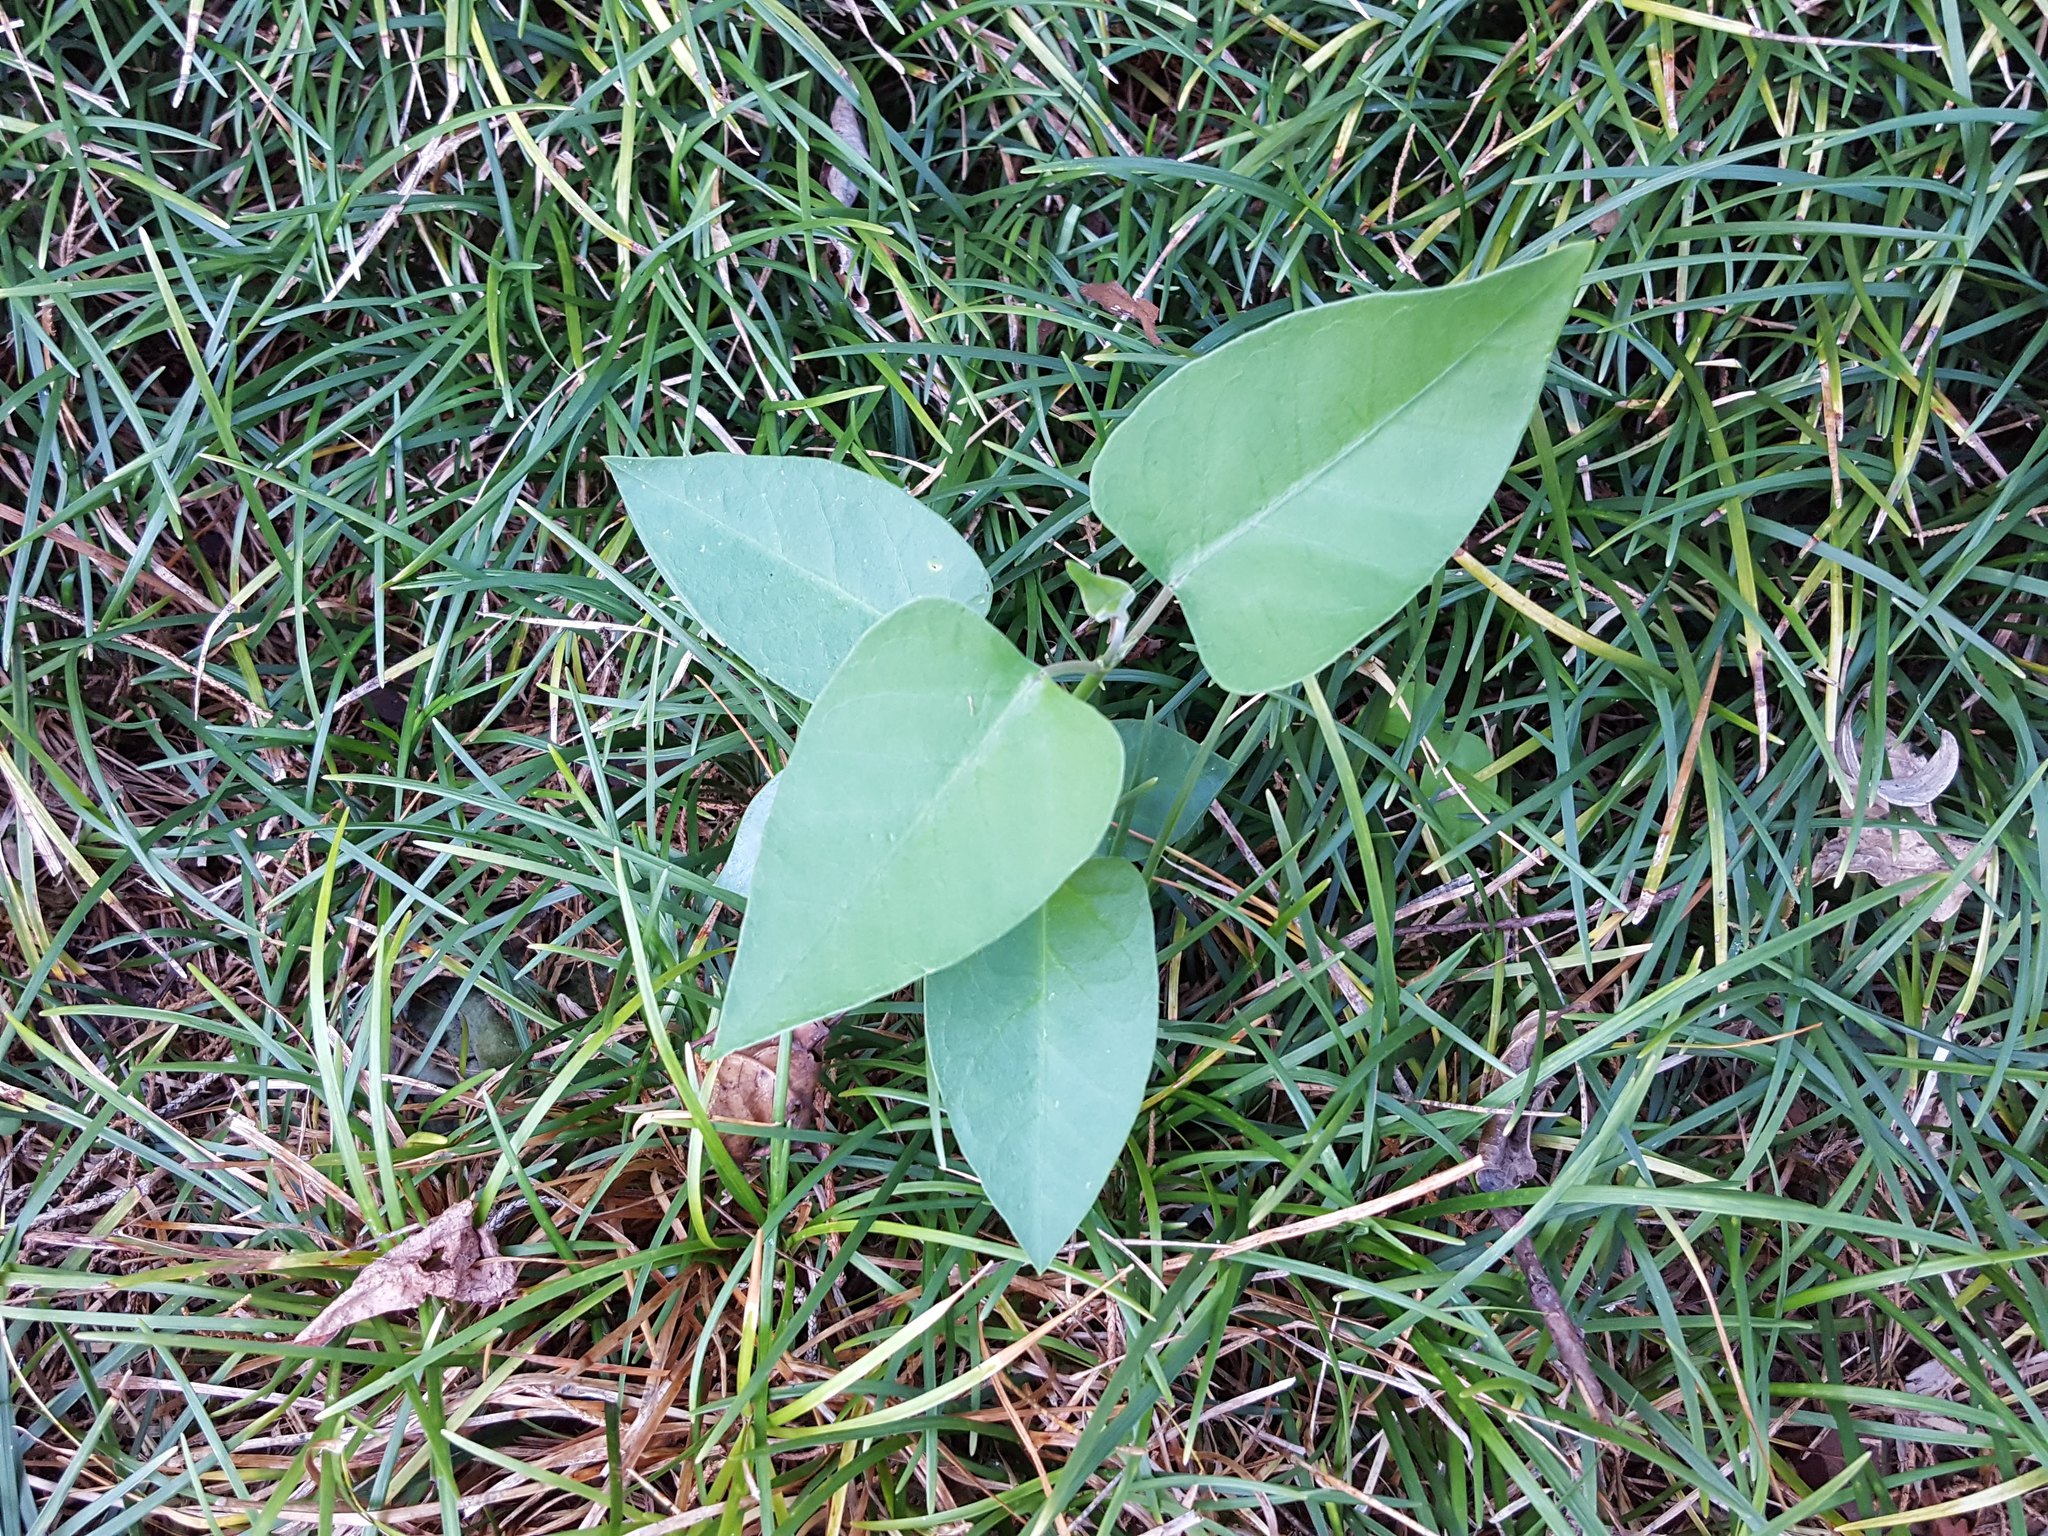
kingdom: Plantae
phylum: Tracheophyta
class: Magnoliopsida
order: Gentianales
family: Apocynaceae
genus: Araujia
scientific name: Araujia sericifera
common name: White bladderflower
